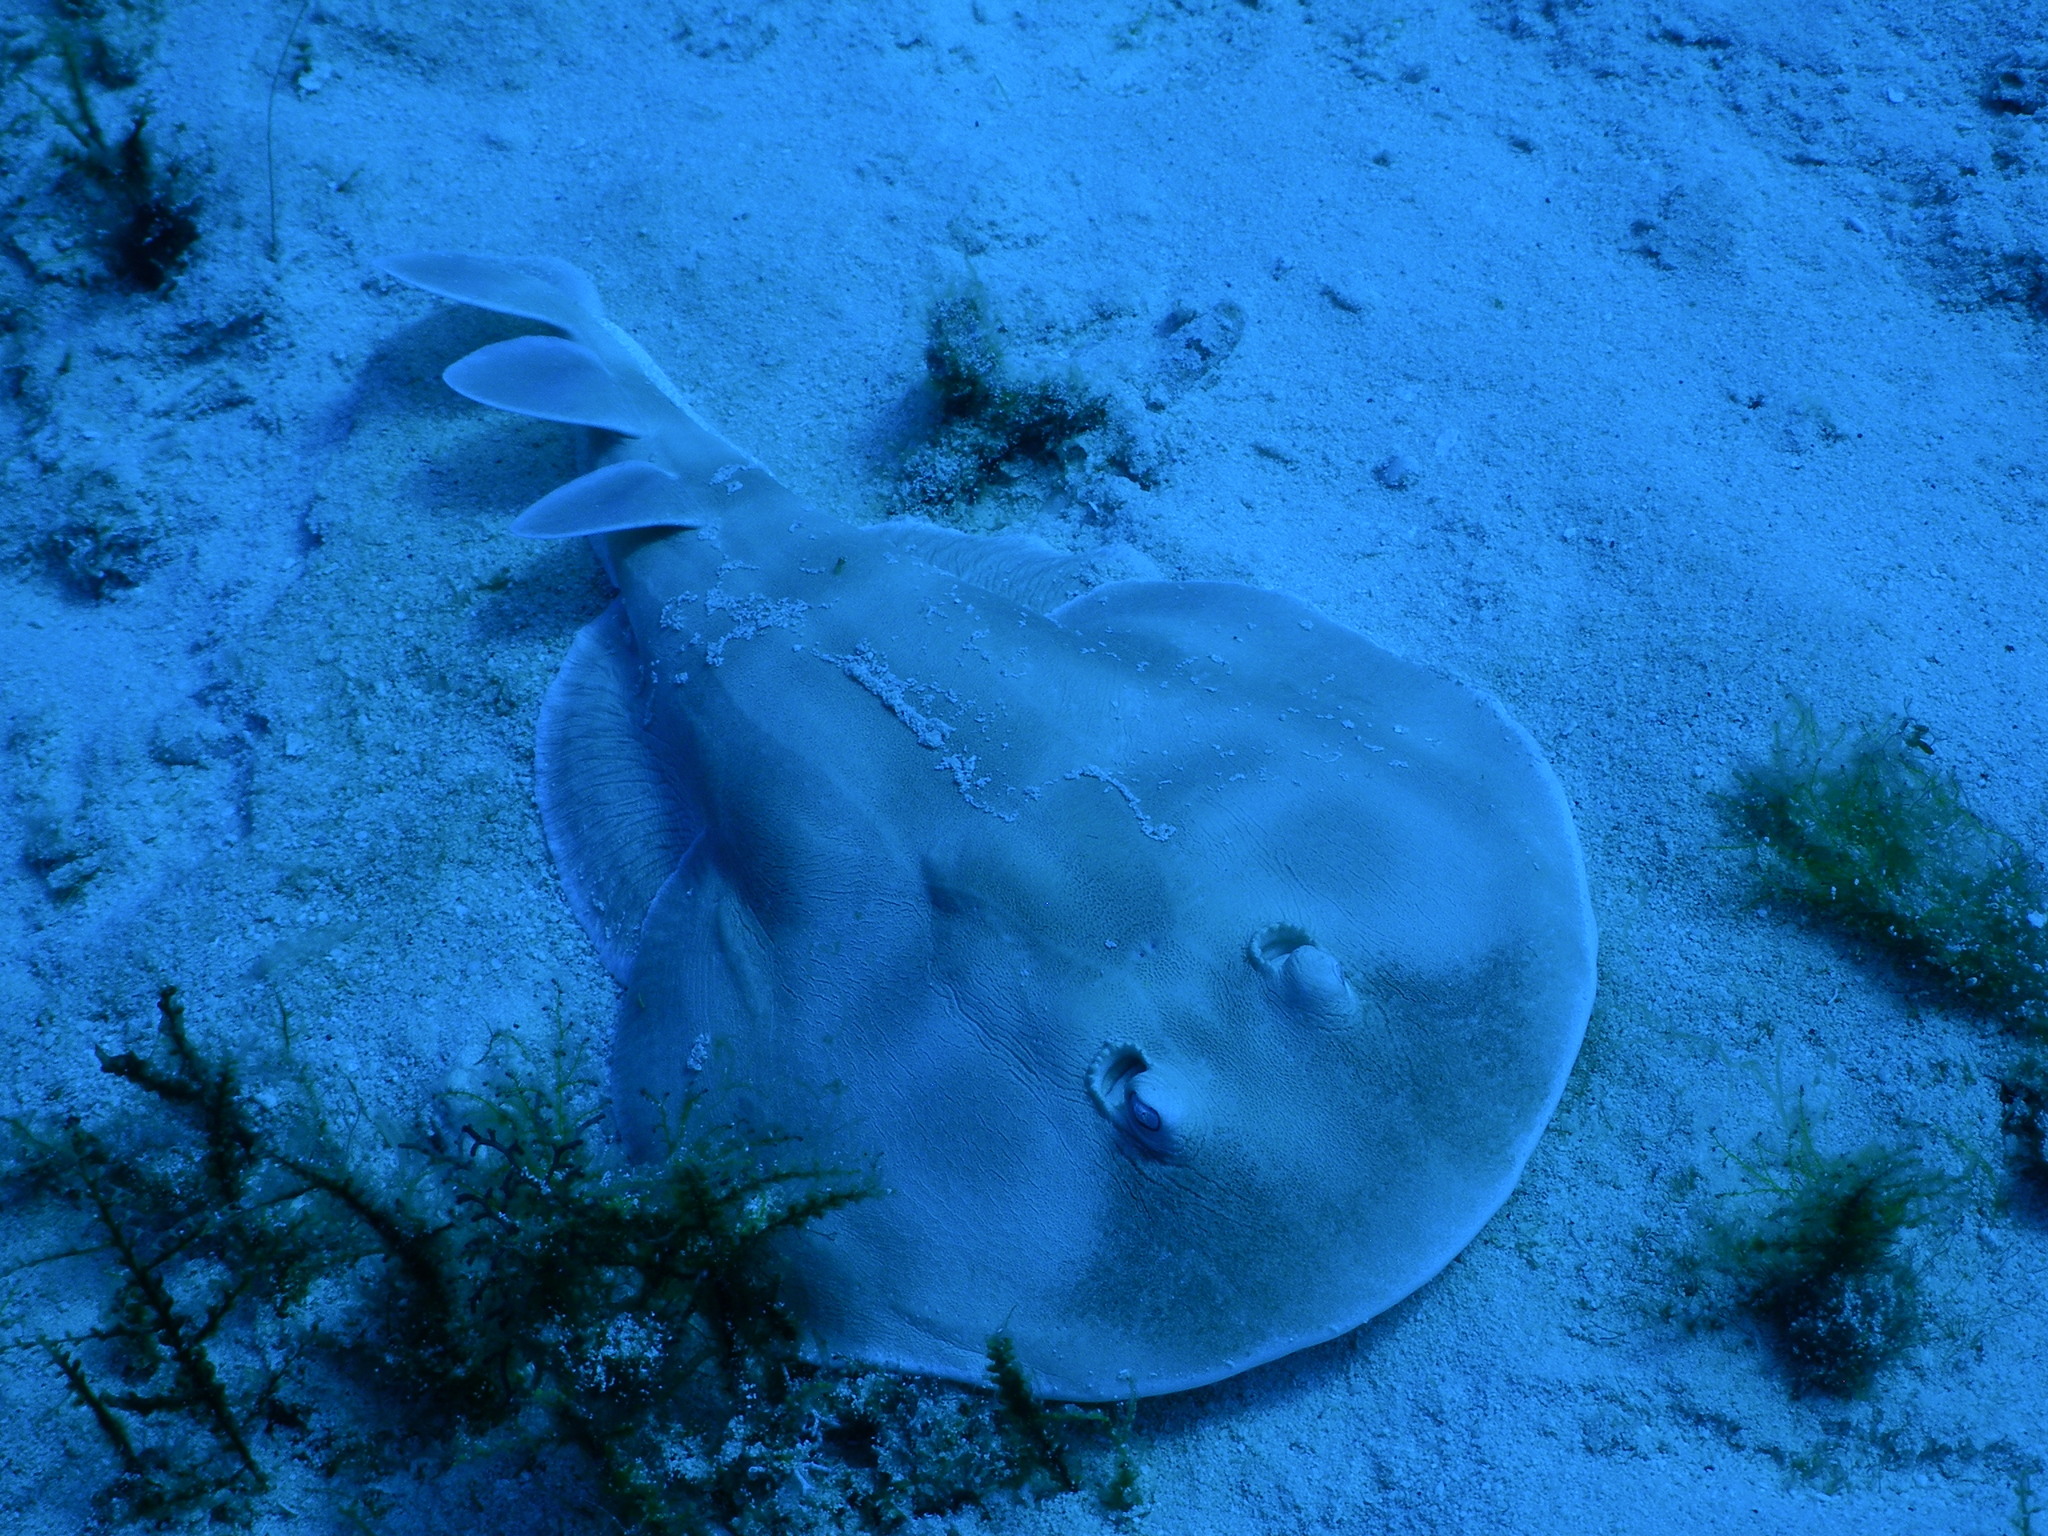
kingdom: Animalia
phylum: Chordata
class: Elasmobranchii
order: Torpediniformes
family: Narcinidae
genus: Narcine
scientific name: Narcine bancroftii
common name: Lesser electric ray
